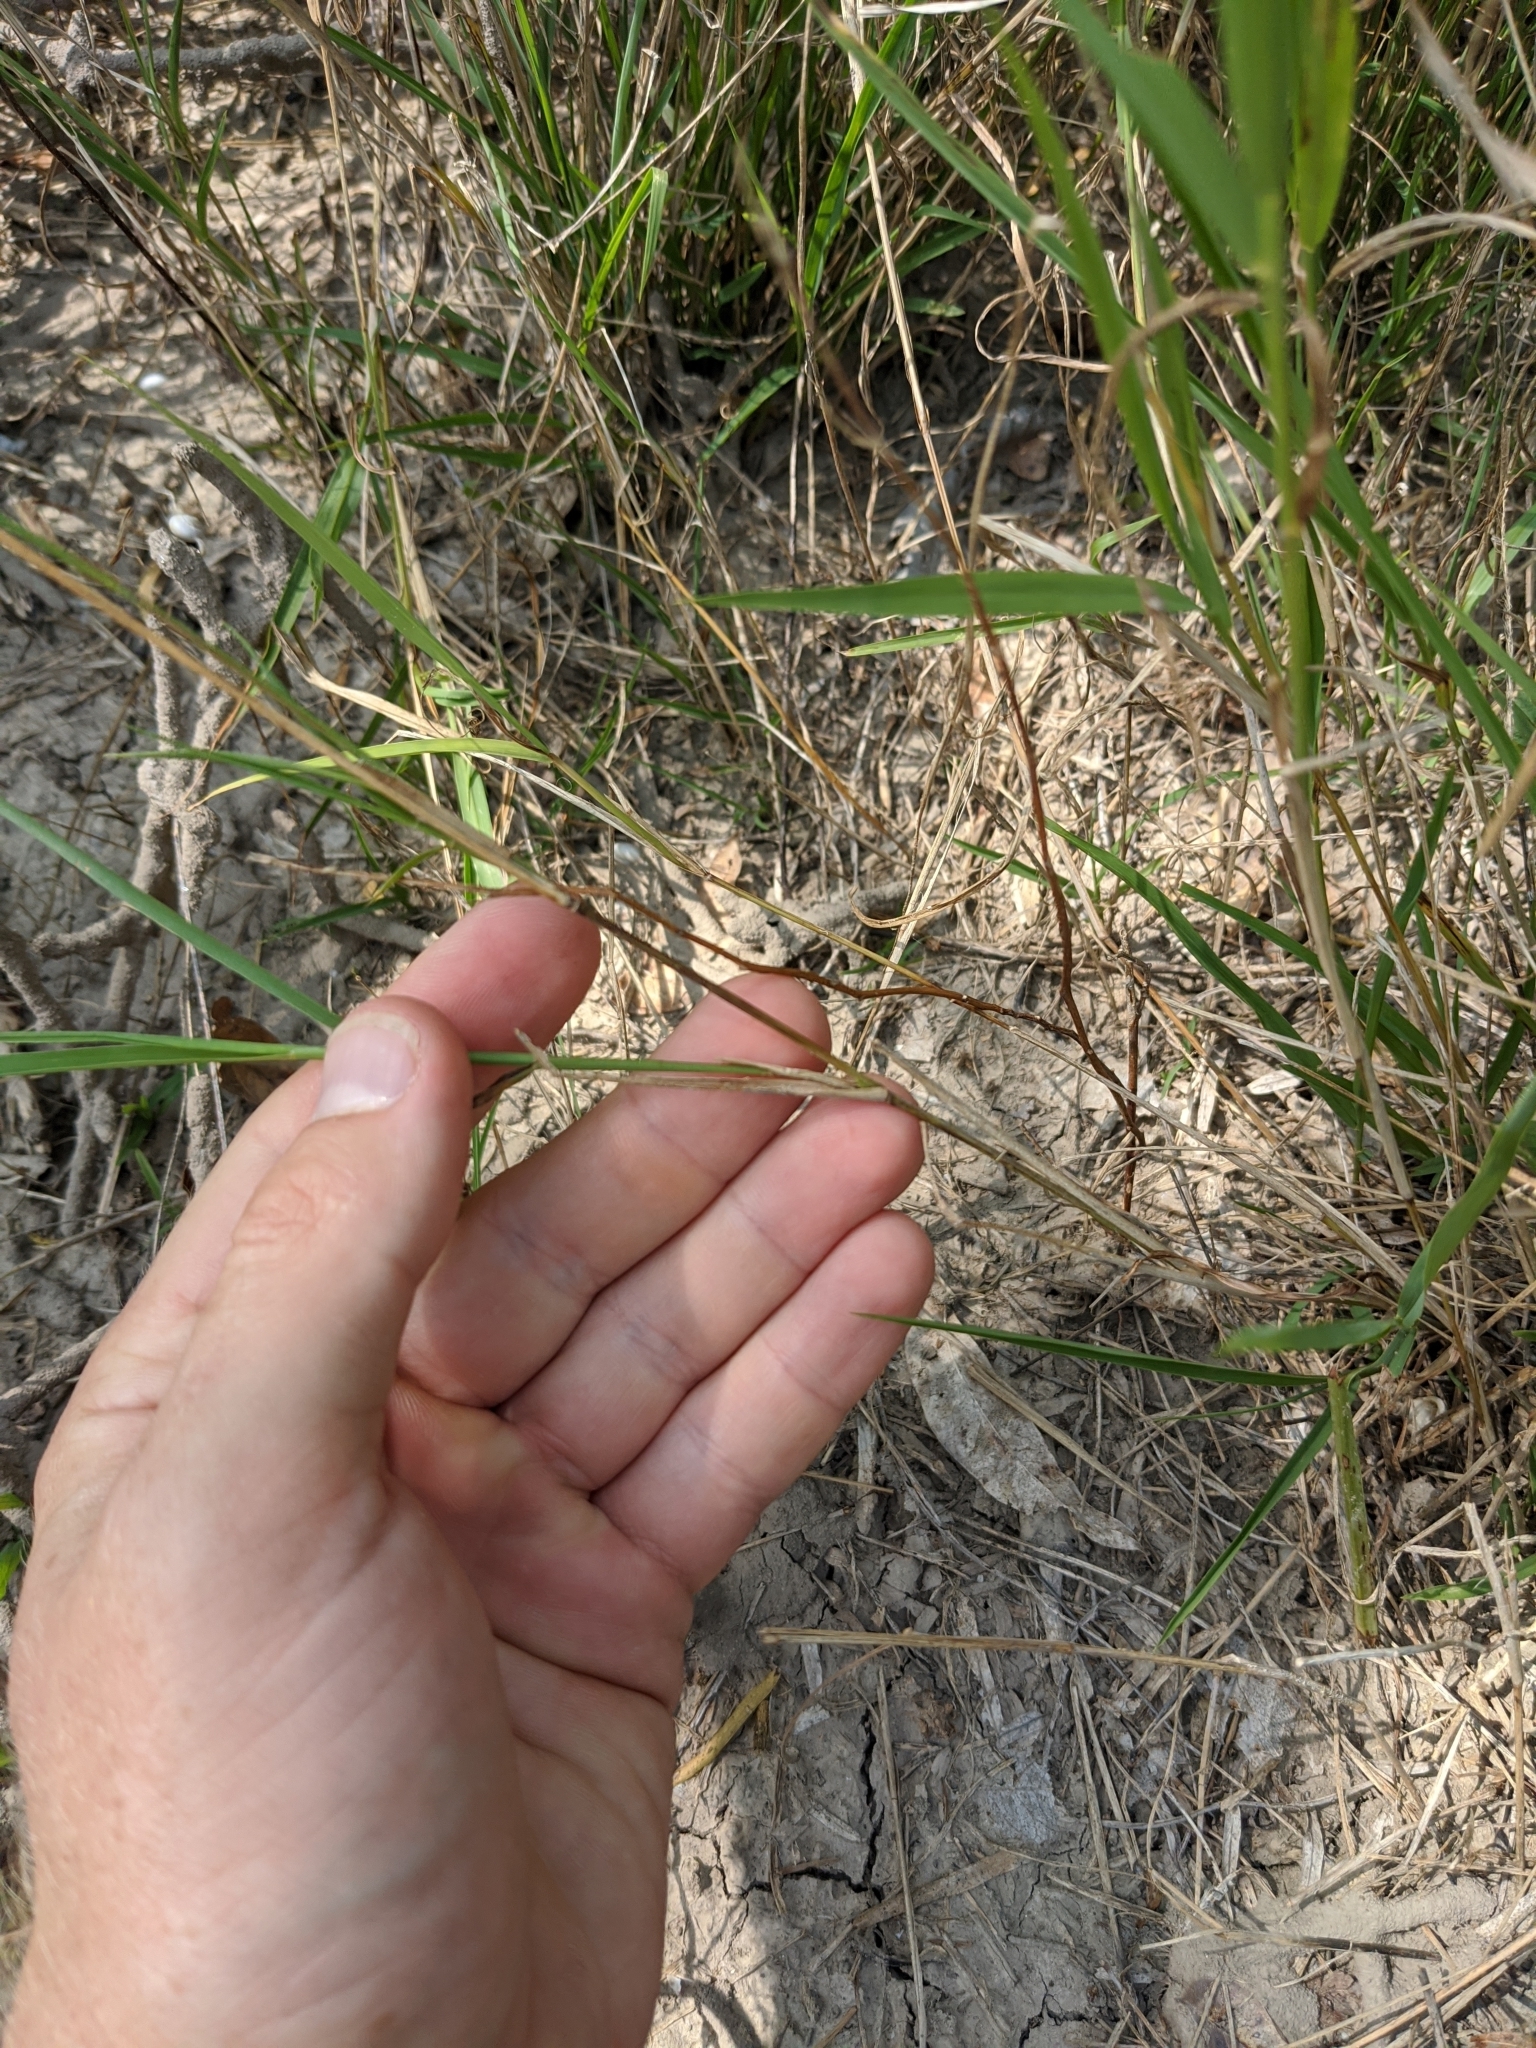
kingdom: Plantae
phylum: Tracheophyta
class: Liliopsida
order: Poales
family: Poaceae
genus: Setaria
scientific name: Setaria texana
